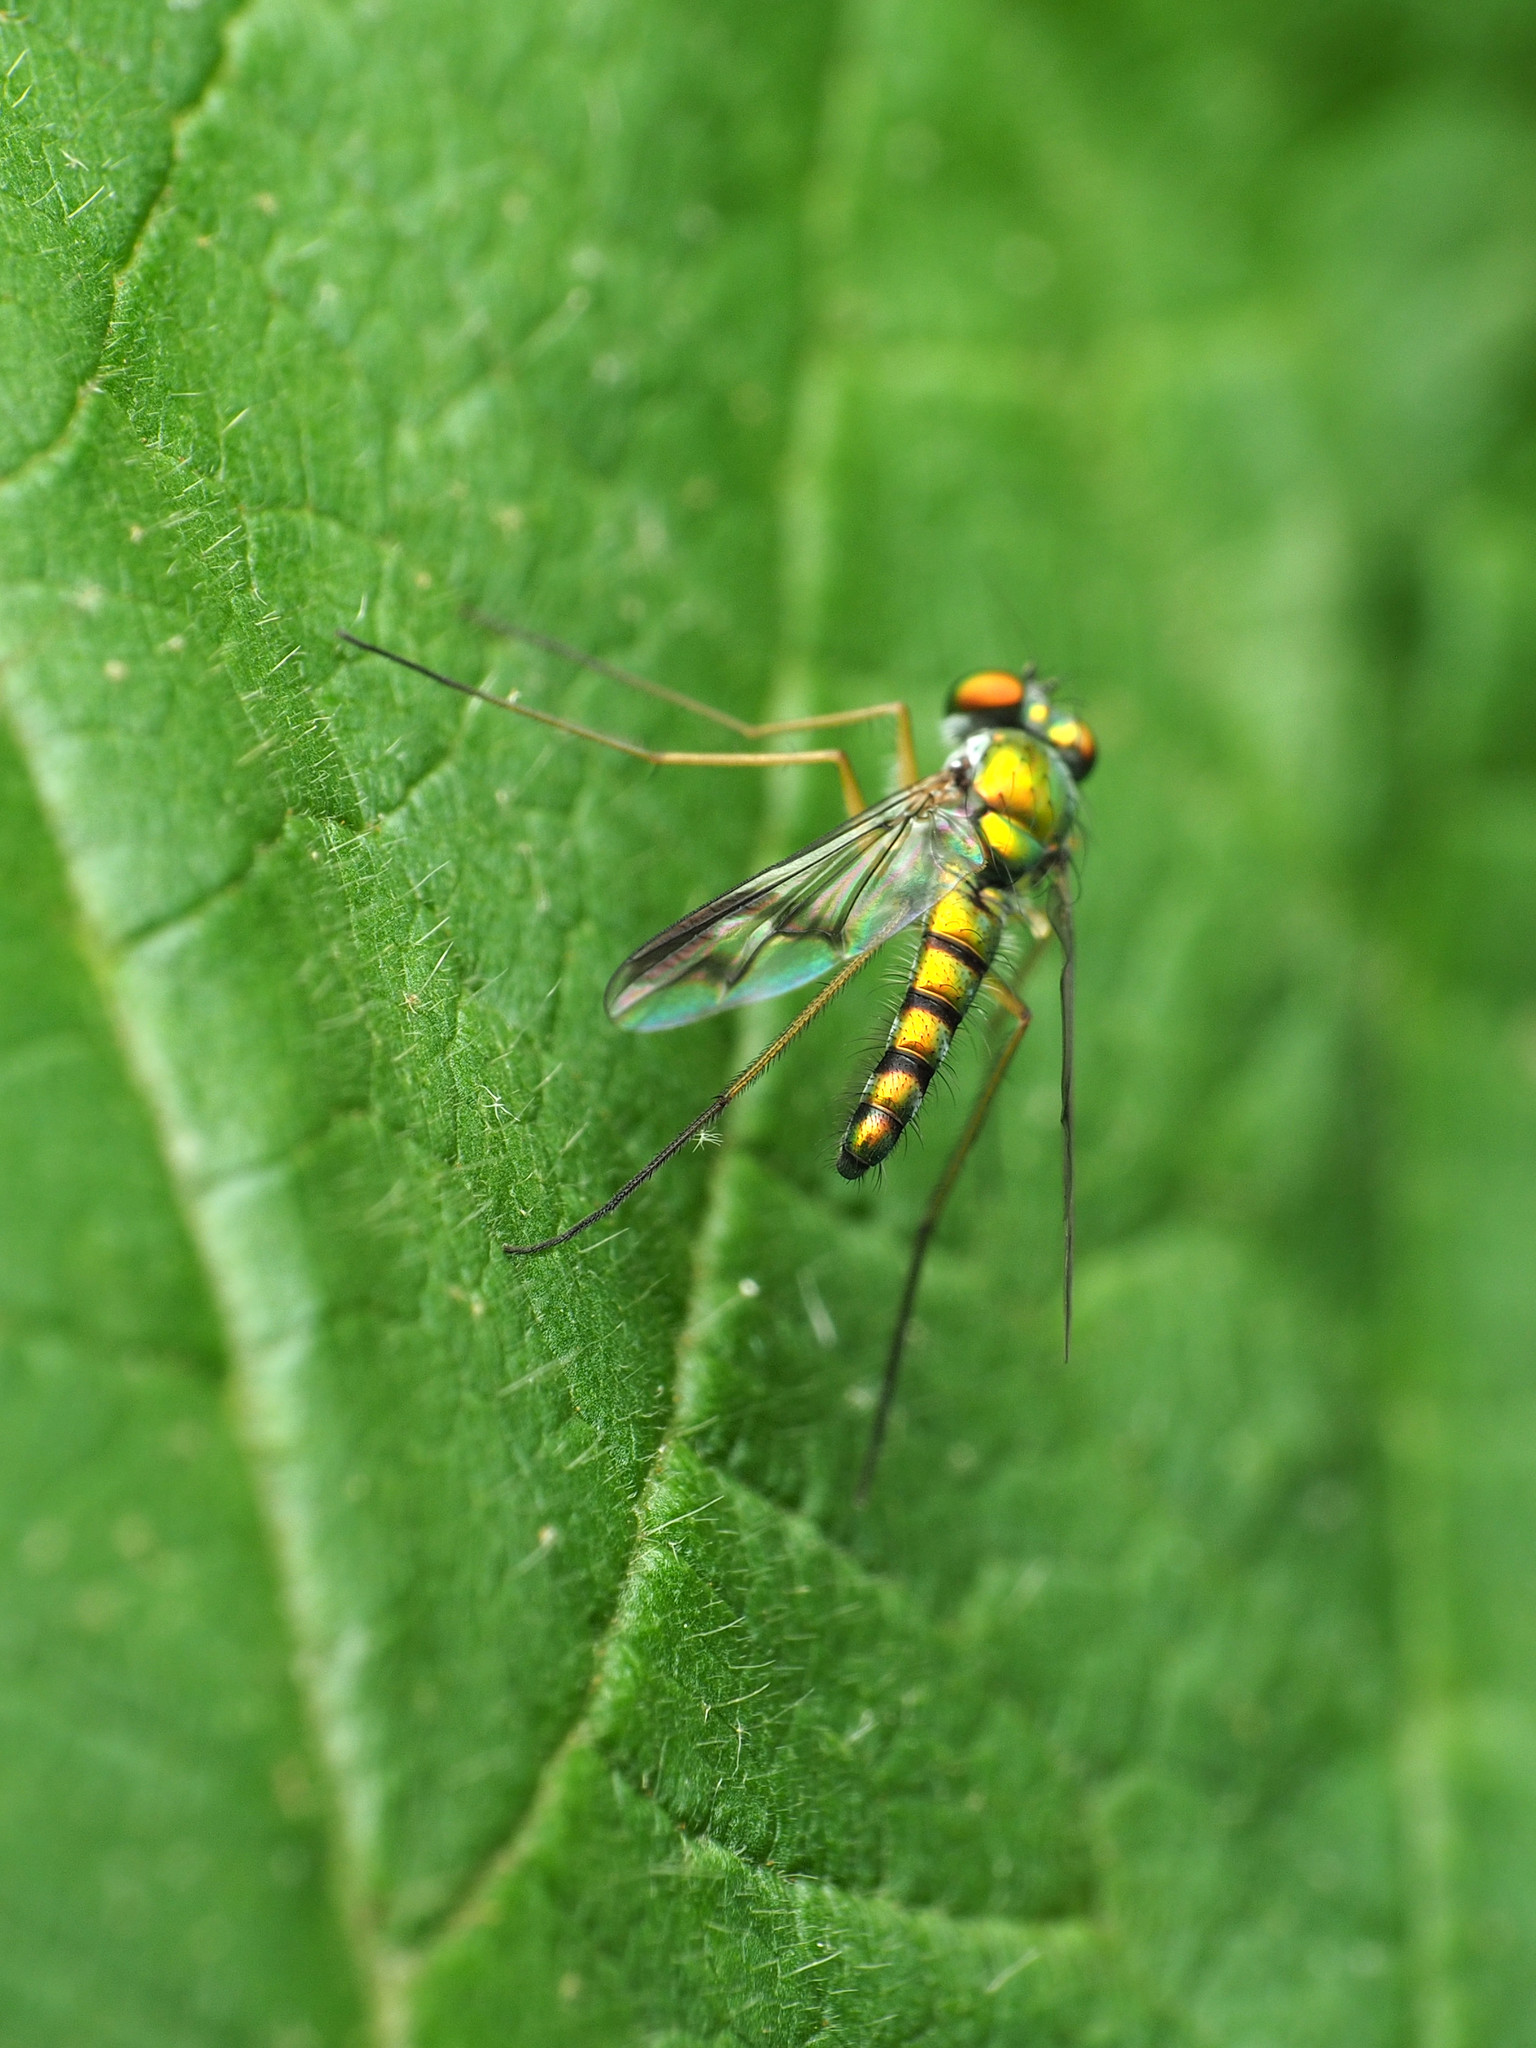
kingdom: Animalia
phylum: Arthropoda
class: Insecta
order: Diptera
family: Dolichopodidae
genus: Condylostylus
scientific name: Condylostylus brimleyi
